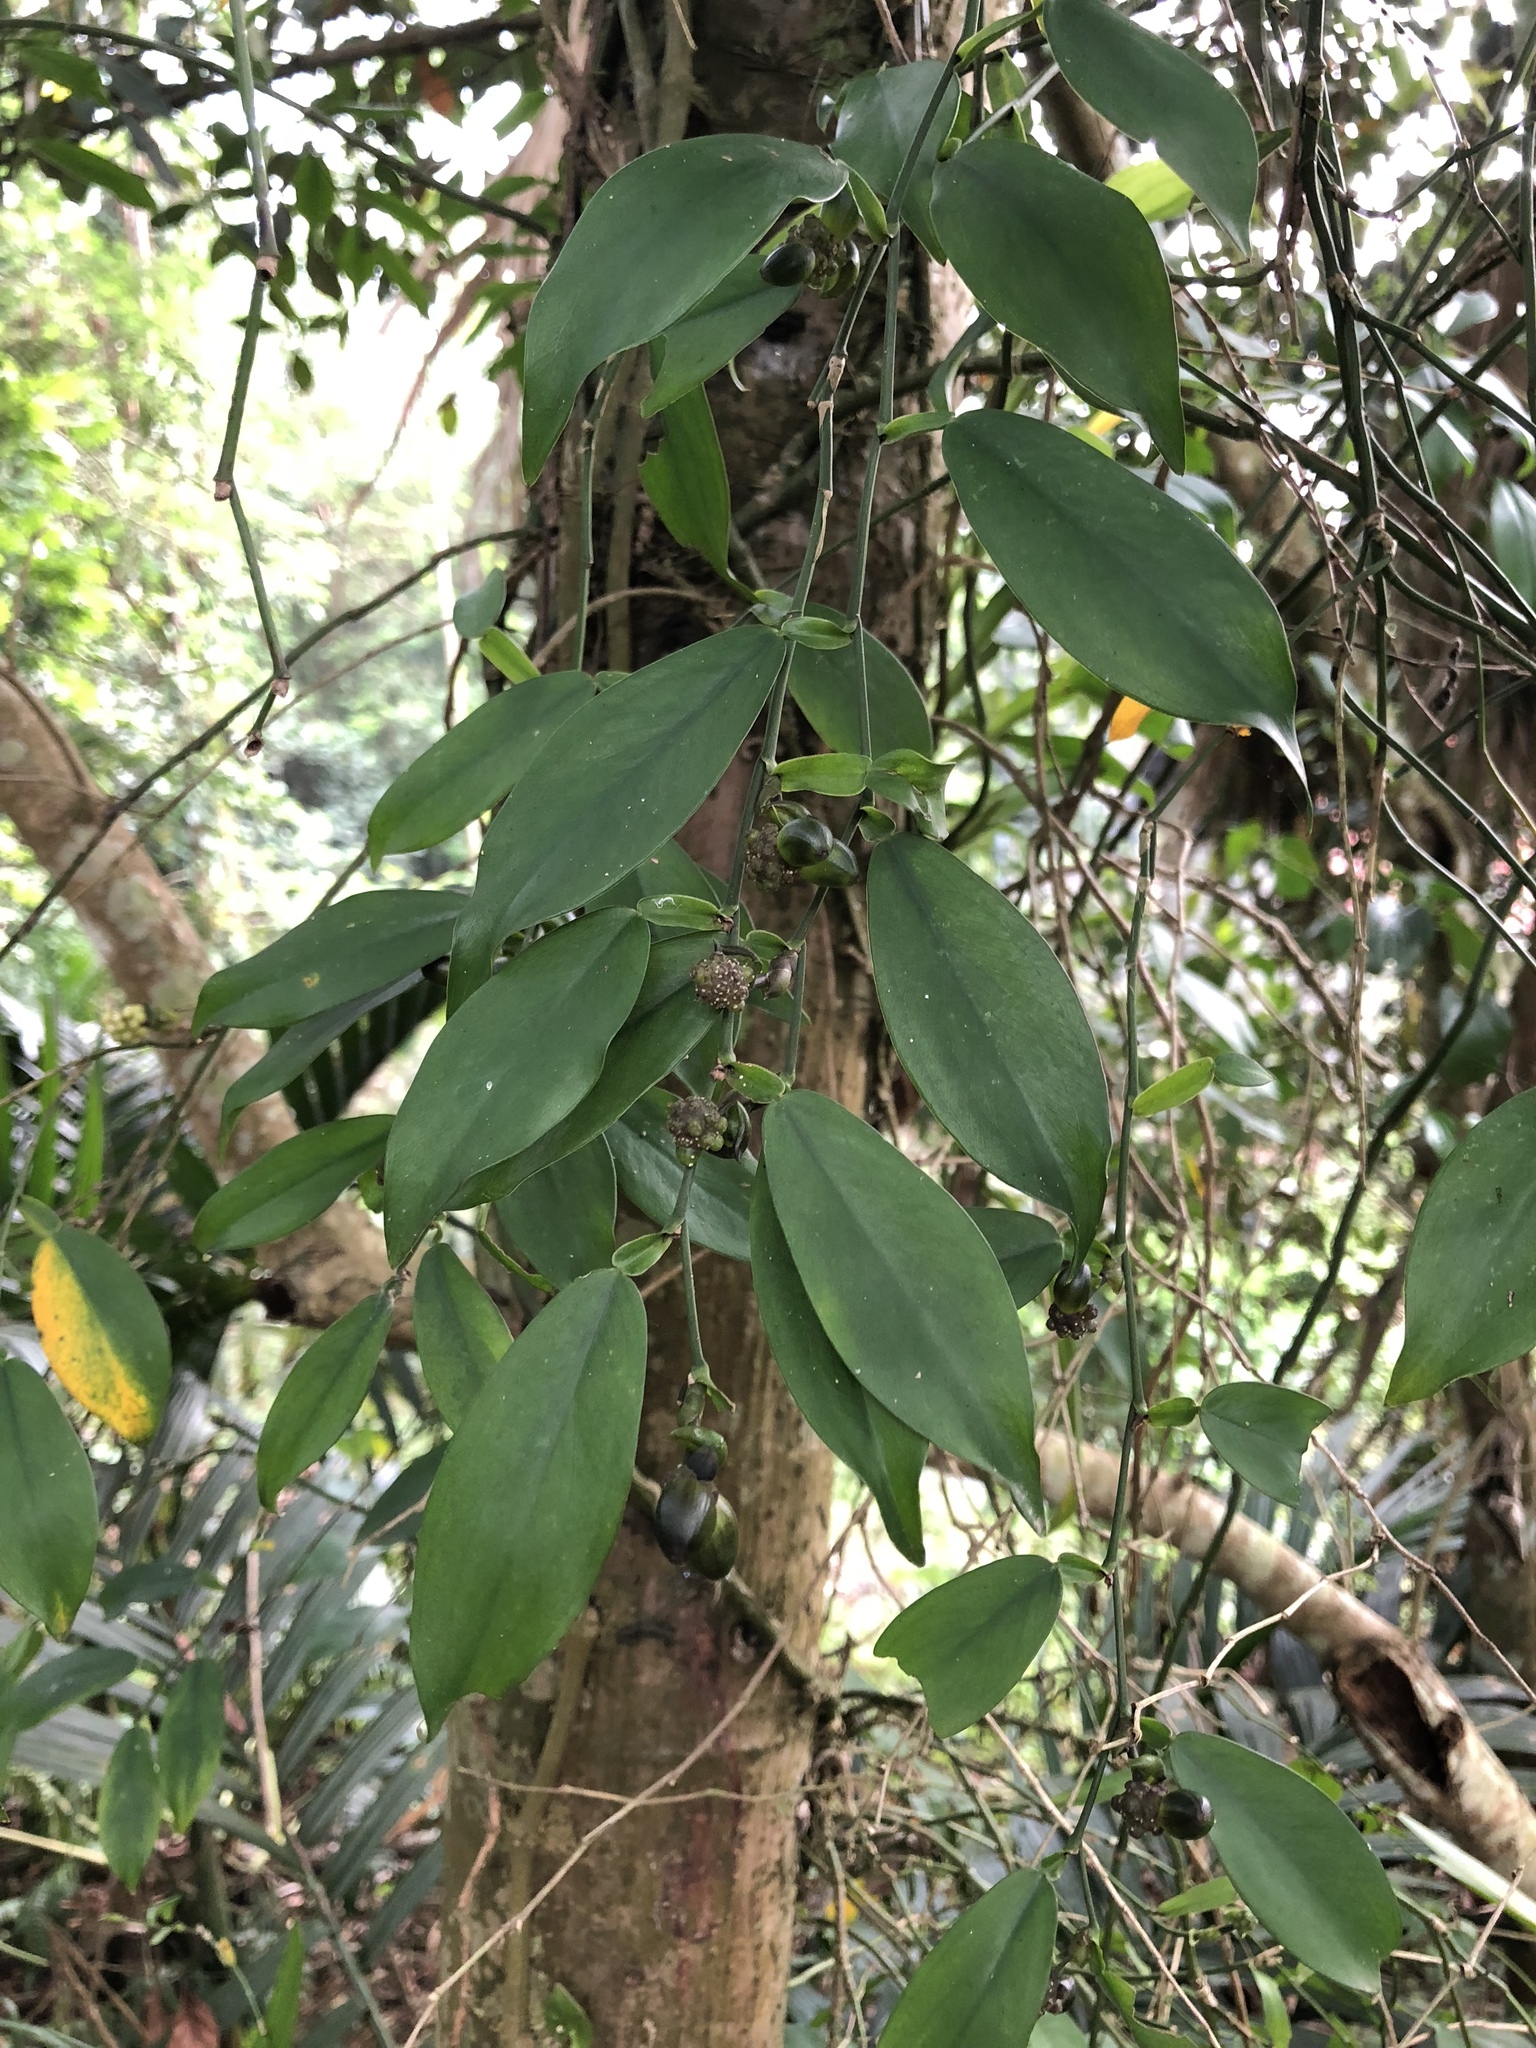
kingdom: Plantae
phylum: Tracheophyta
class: Liliopsida
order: Alismatales
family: Araceae
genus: Pothos
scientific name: Pothos chinensis
